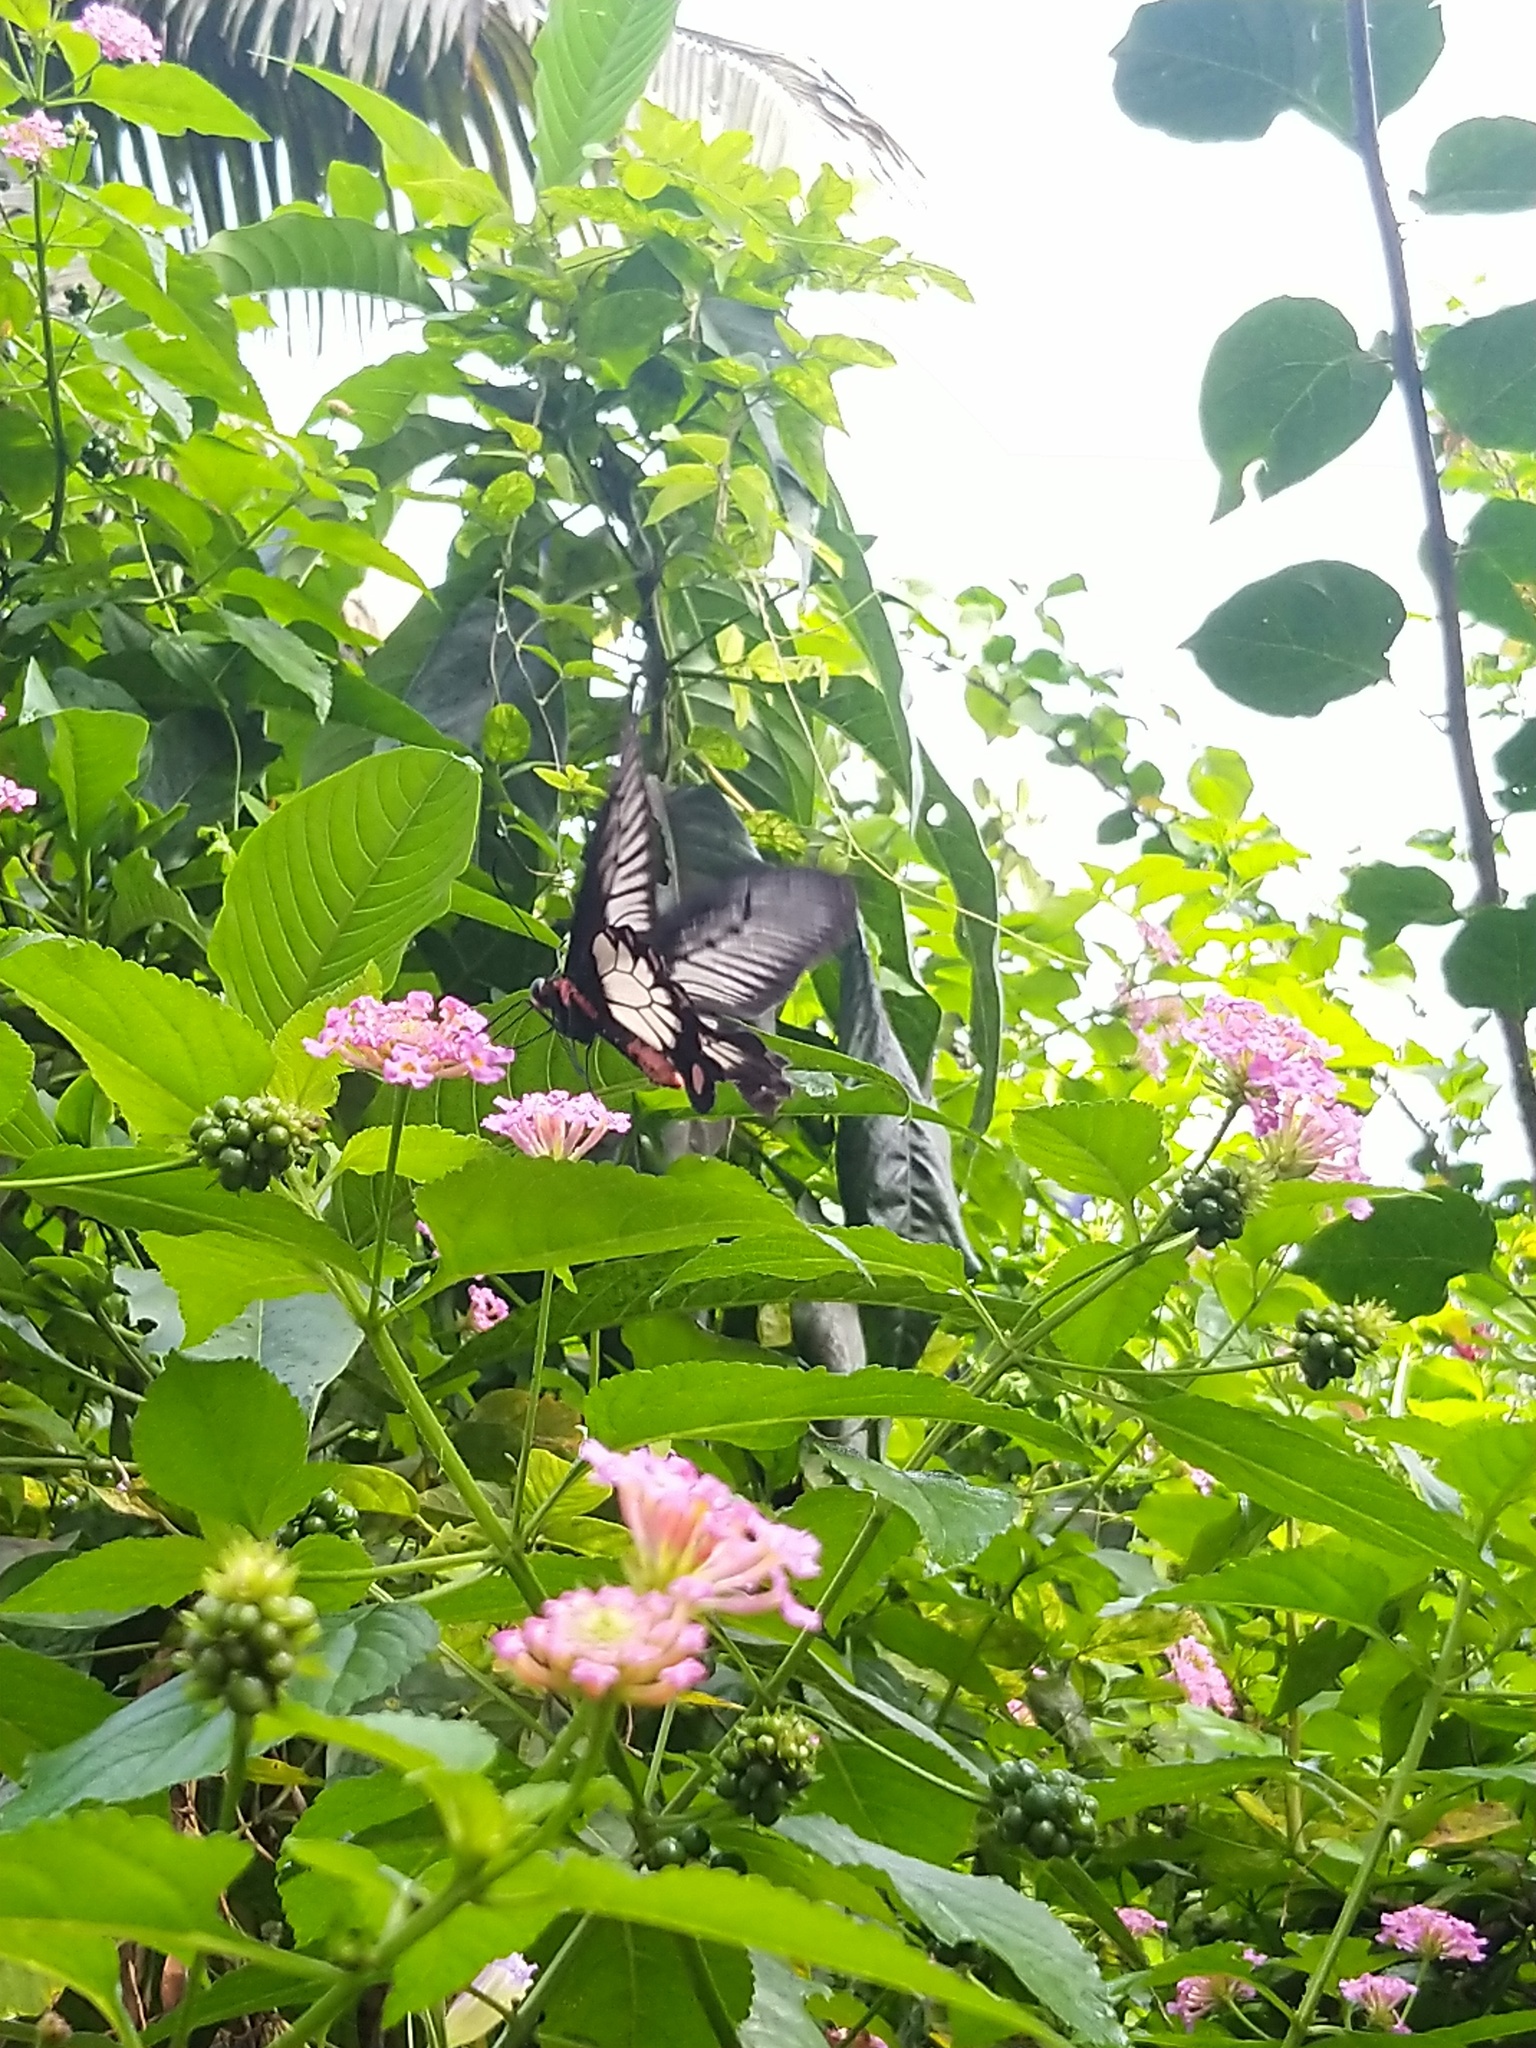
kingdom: Animalia
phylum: Arthropoda
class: Insecta
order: Lepidoptera
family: Papilionidae
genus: Pachliopta
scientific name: Pachliopta pandiyana
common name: Malabar rose
